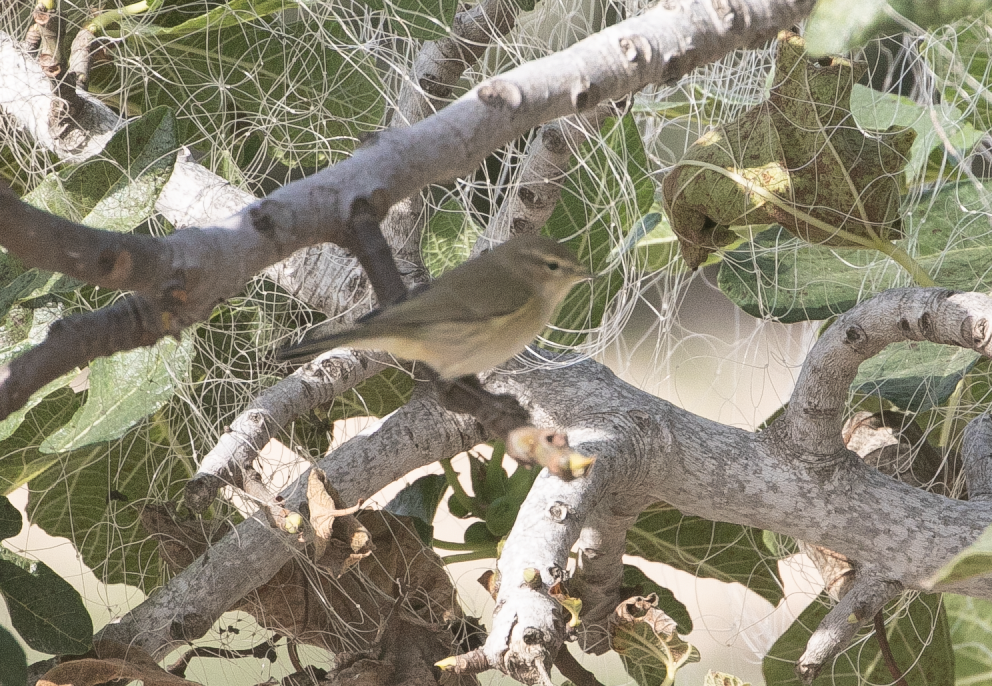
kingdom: Animalia
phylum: Chordata
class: Aves
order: Passeriformes
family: Phylloscopidae
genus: Phylloscopus
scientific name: Phylloscopus collybita
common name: Common chiffchaff
